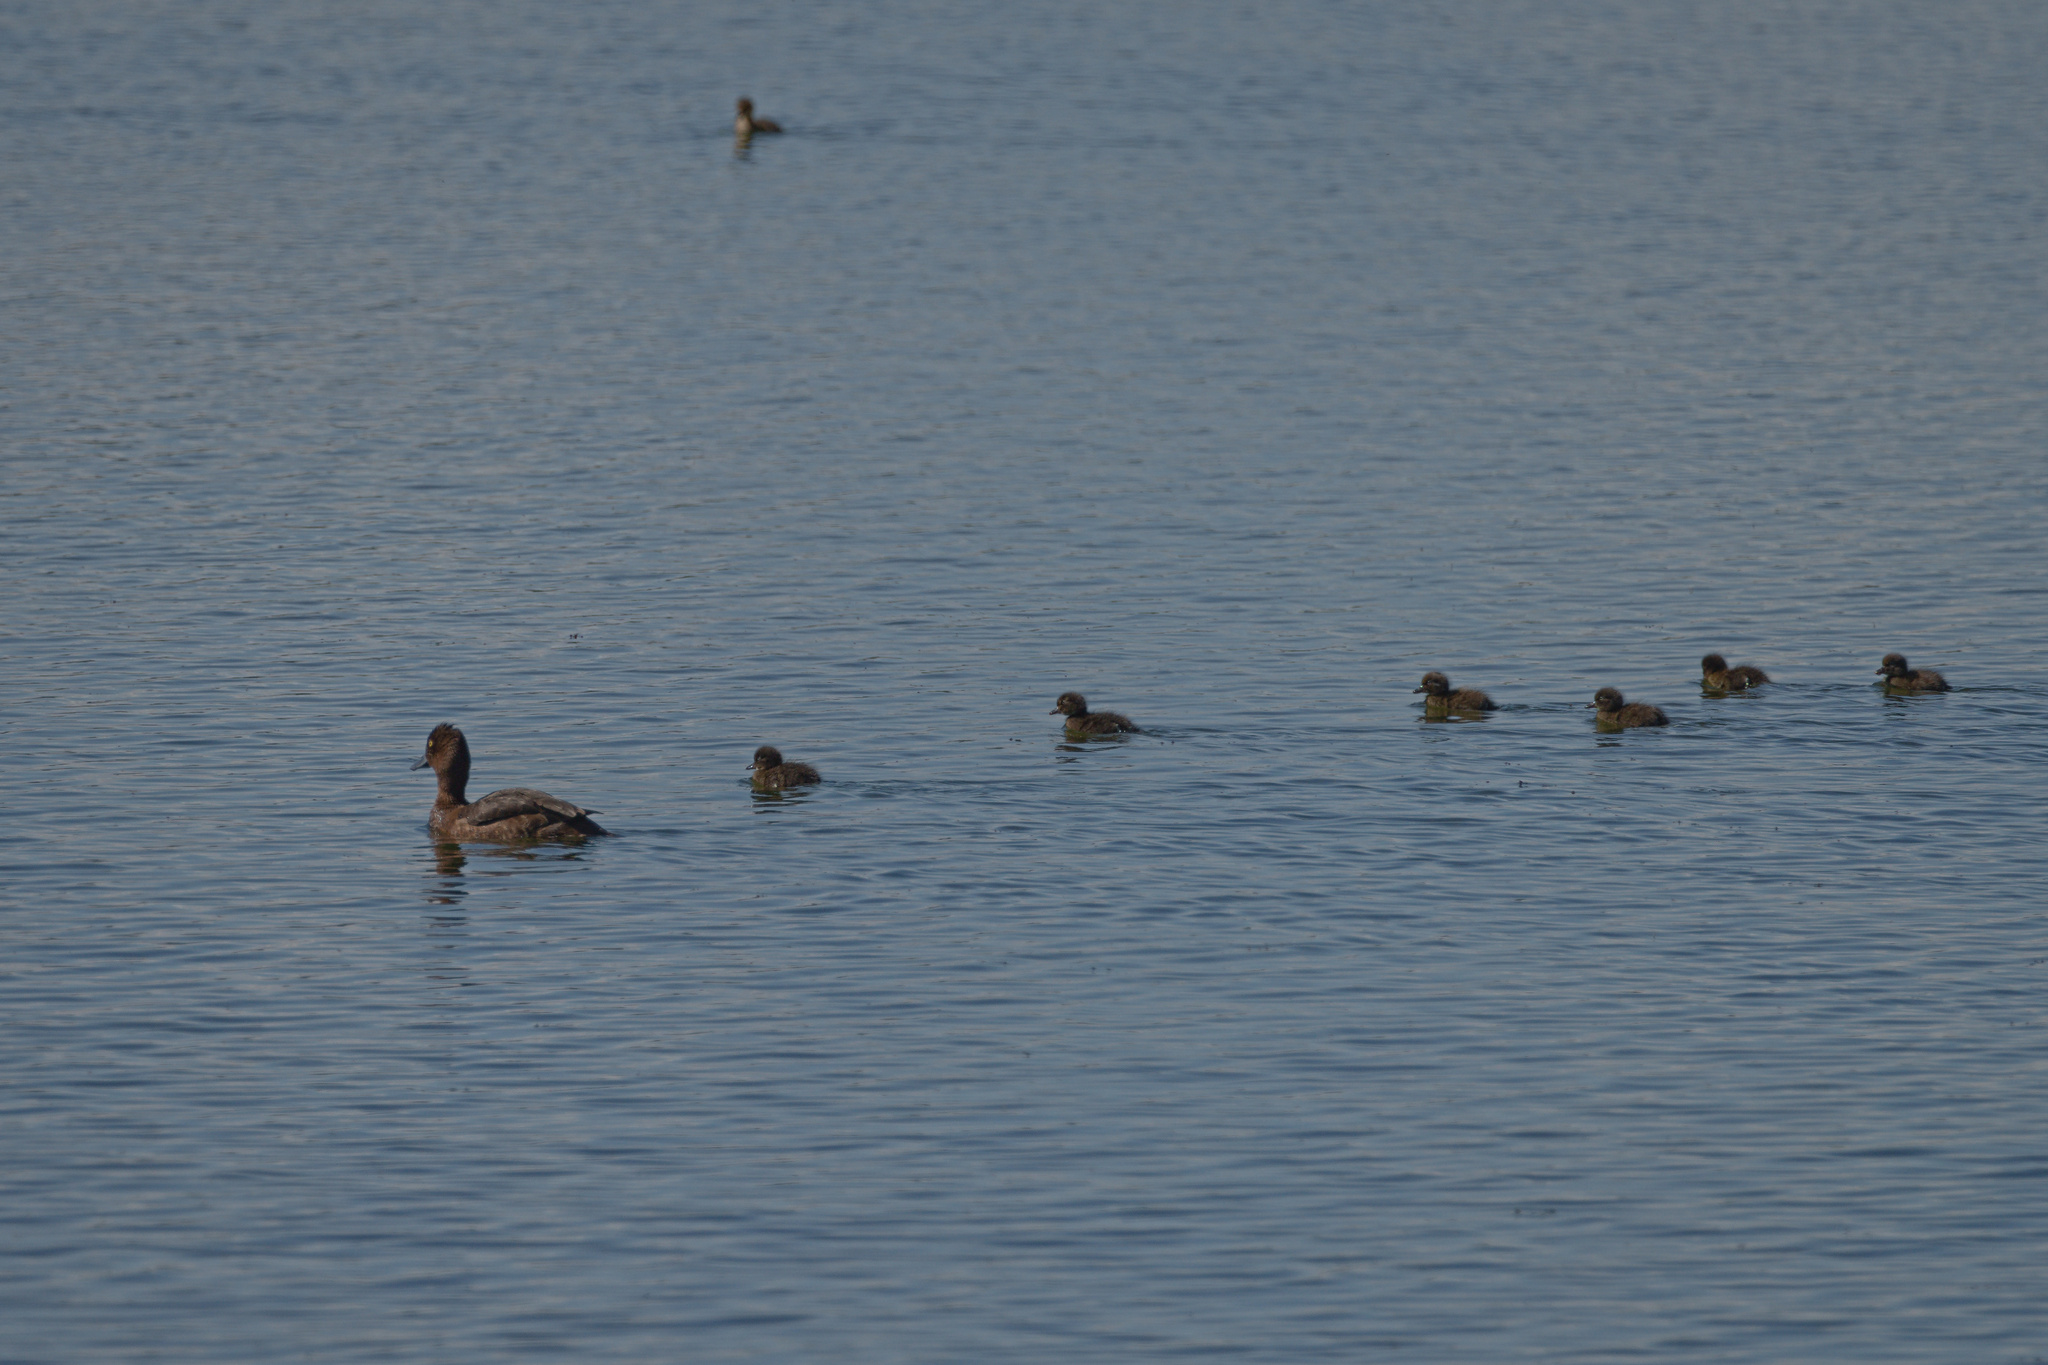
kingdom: Animalia
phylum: Chordata
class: Aves
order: Anseriformes
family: Anatidae
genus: Aythya
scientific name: Aythya fuligula
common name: Tufted duck
